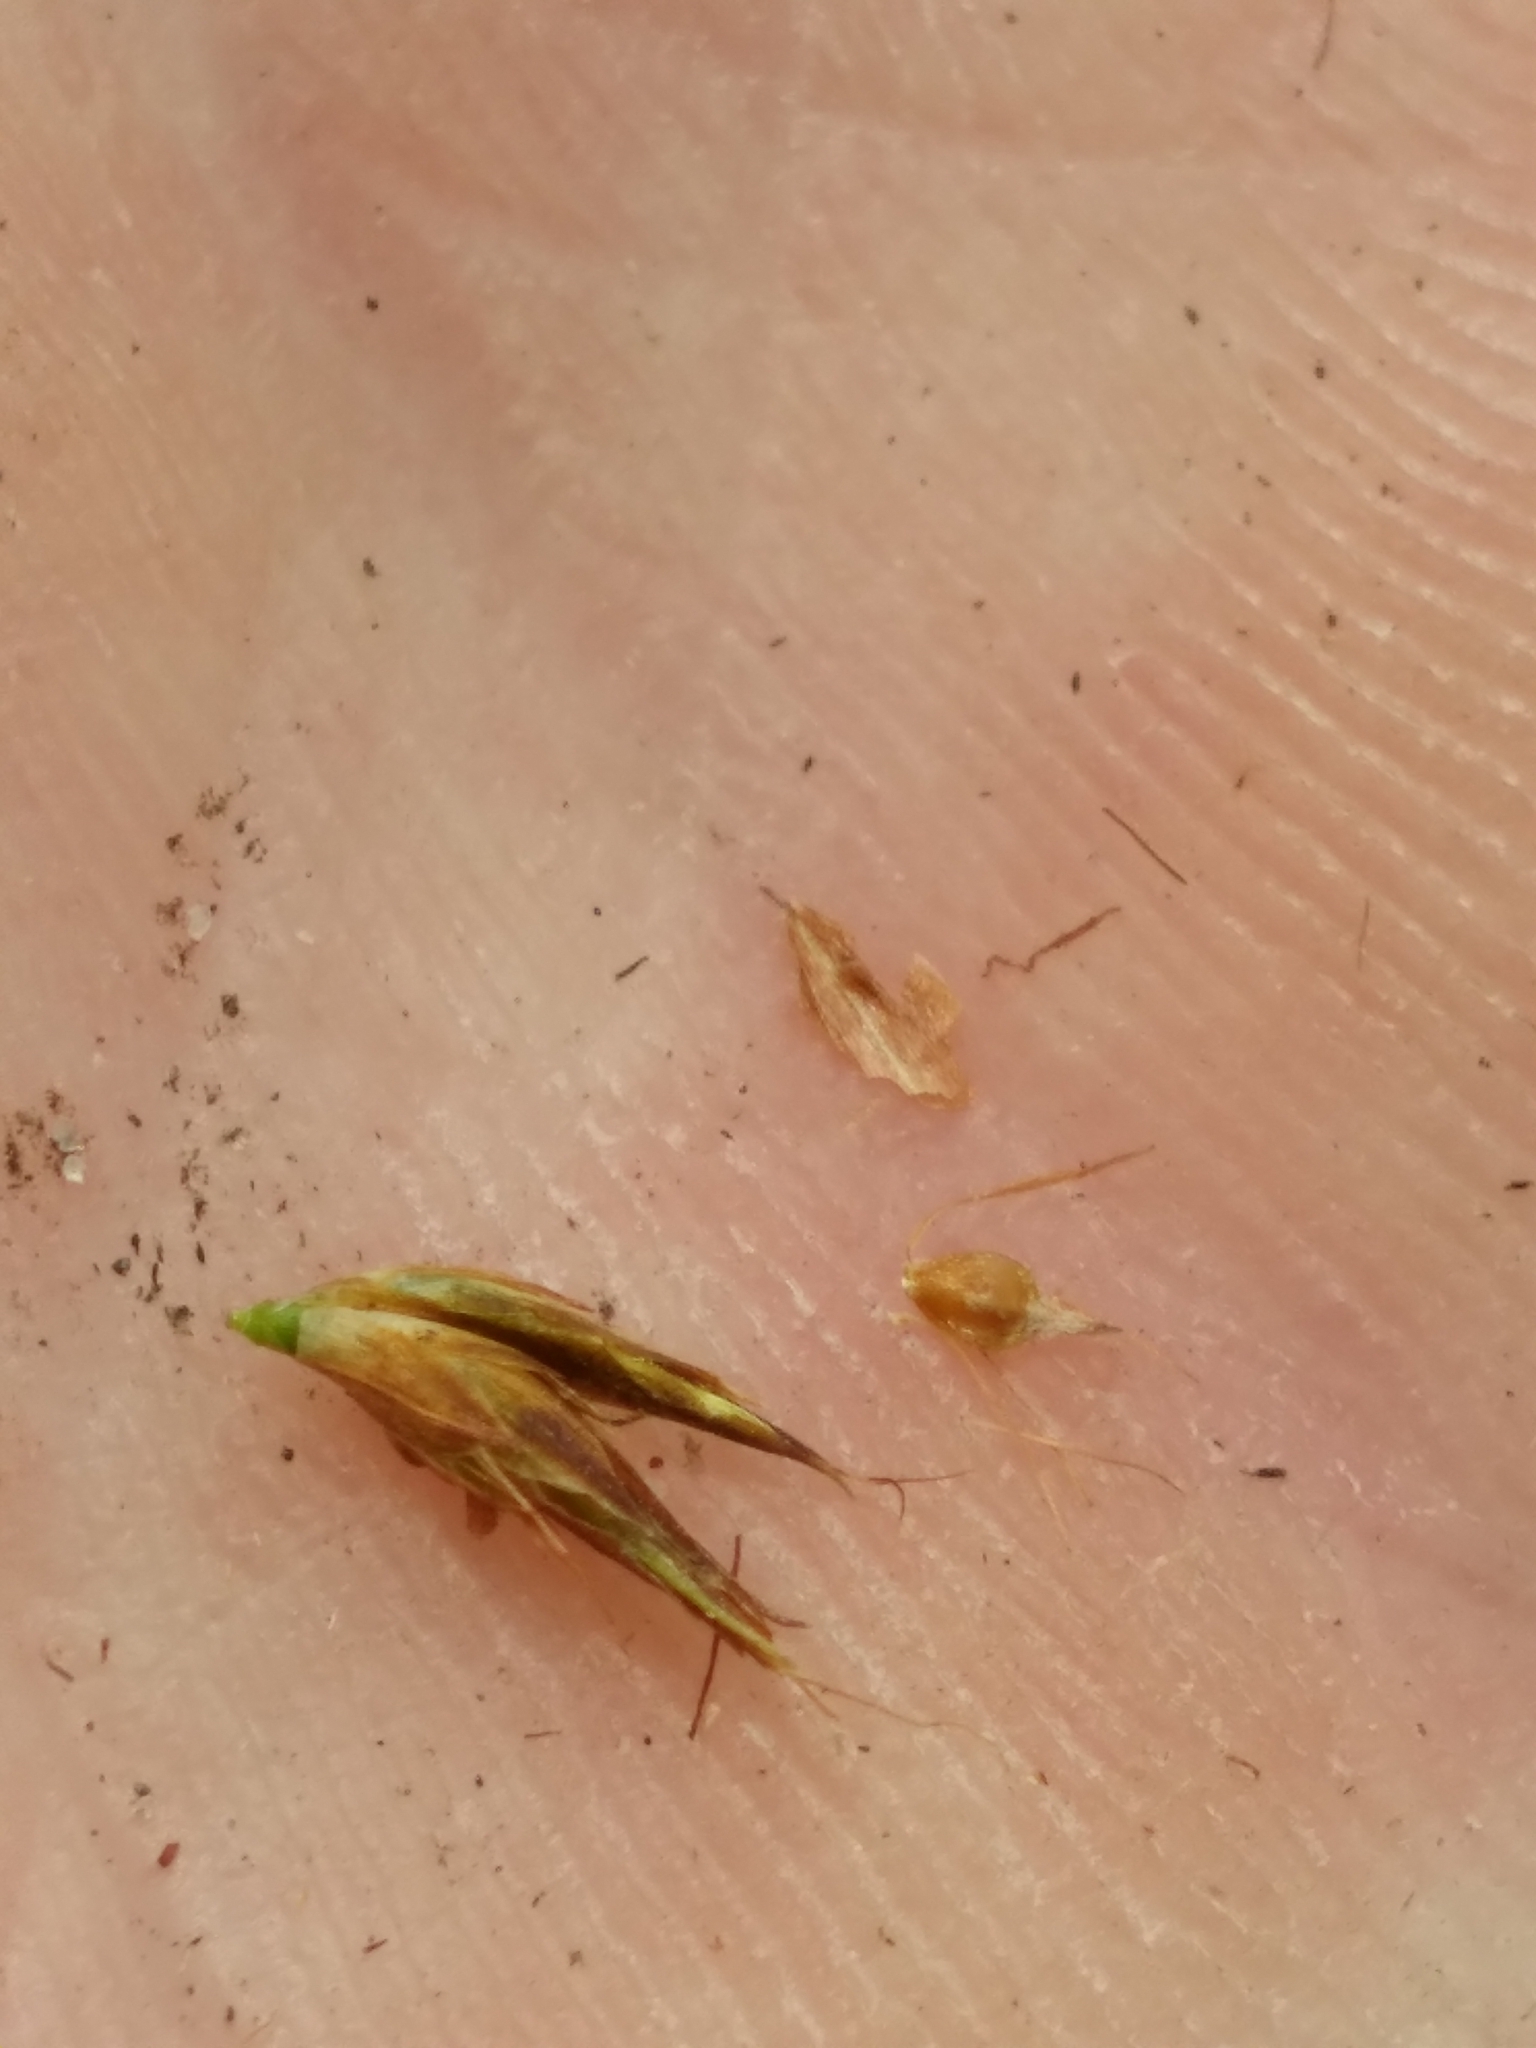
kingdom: Plantae
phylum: Tracheophyta
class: Liliopsida
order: Poales
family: Cyperaceae
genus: Rhynchospora
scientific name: Rhynchospora harperi
